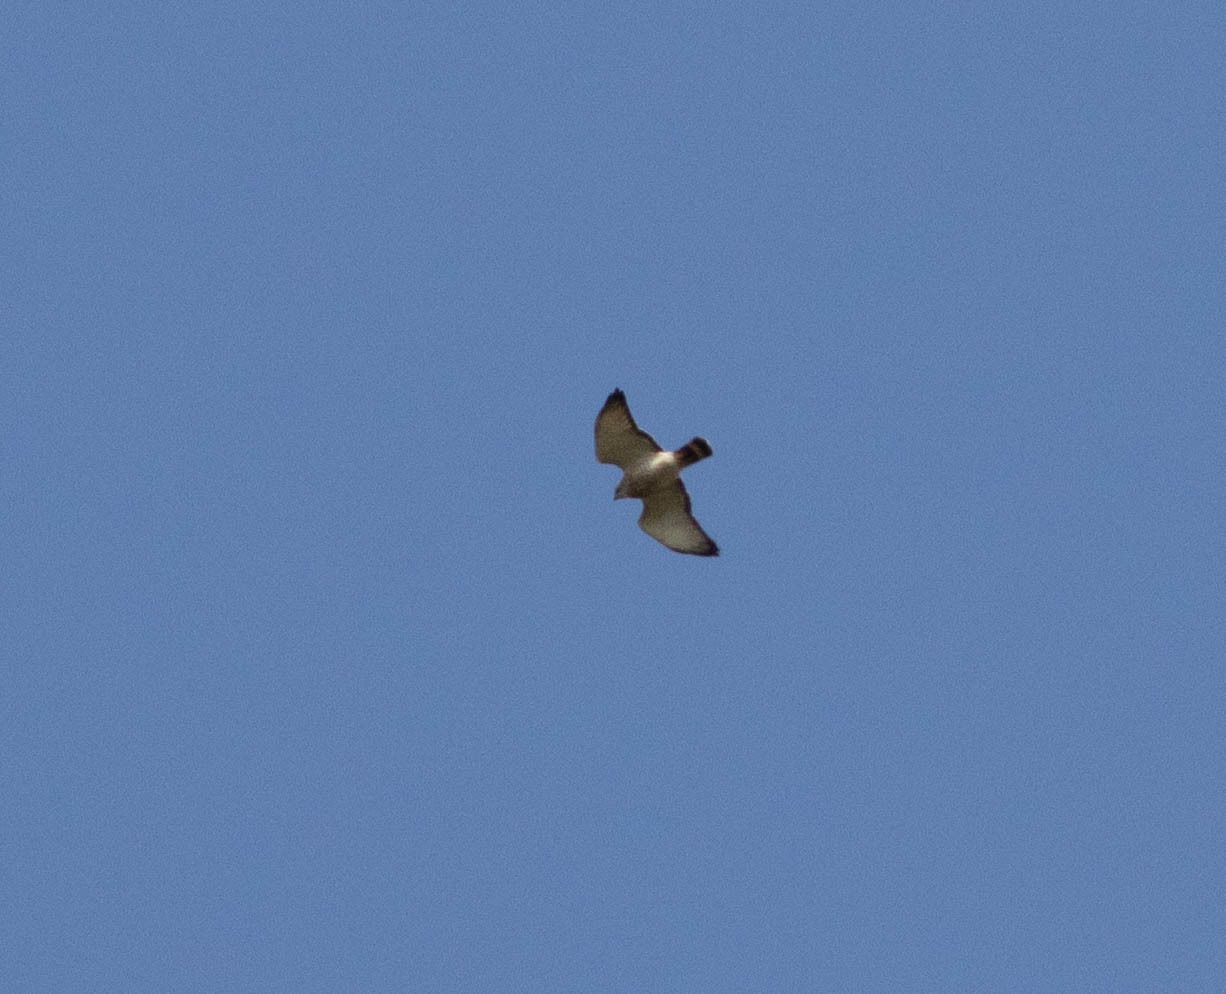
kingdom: Animalia
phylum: Chordata
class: Aves
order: Accipitriformes
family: Accipitridae
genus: Buteo
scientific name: Buteo platypterus
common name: Broad-winged hawk
